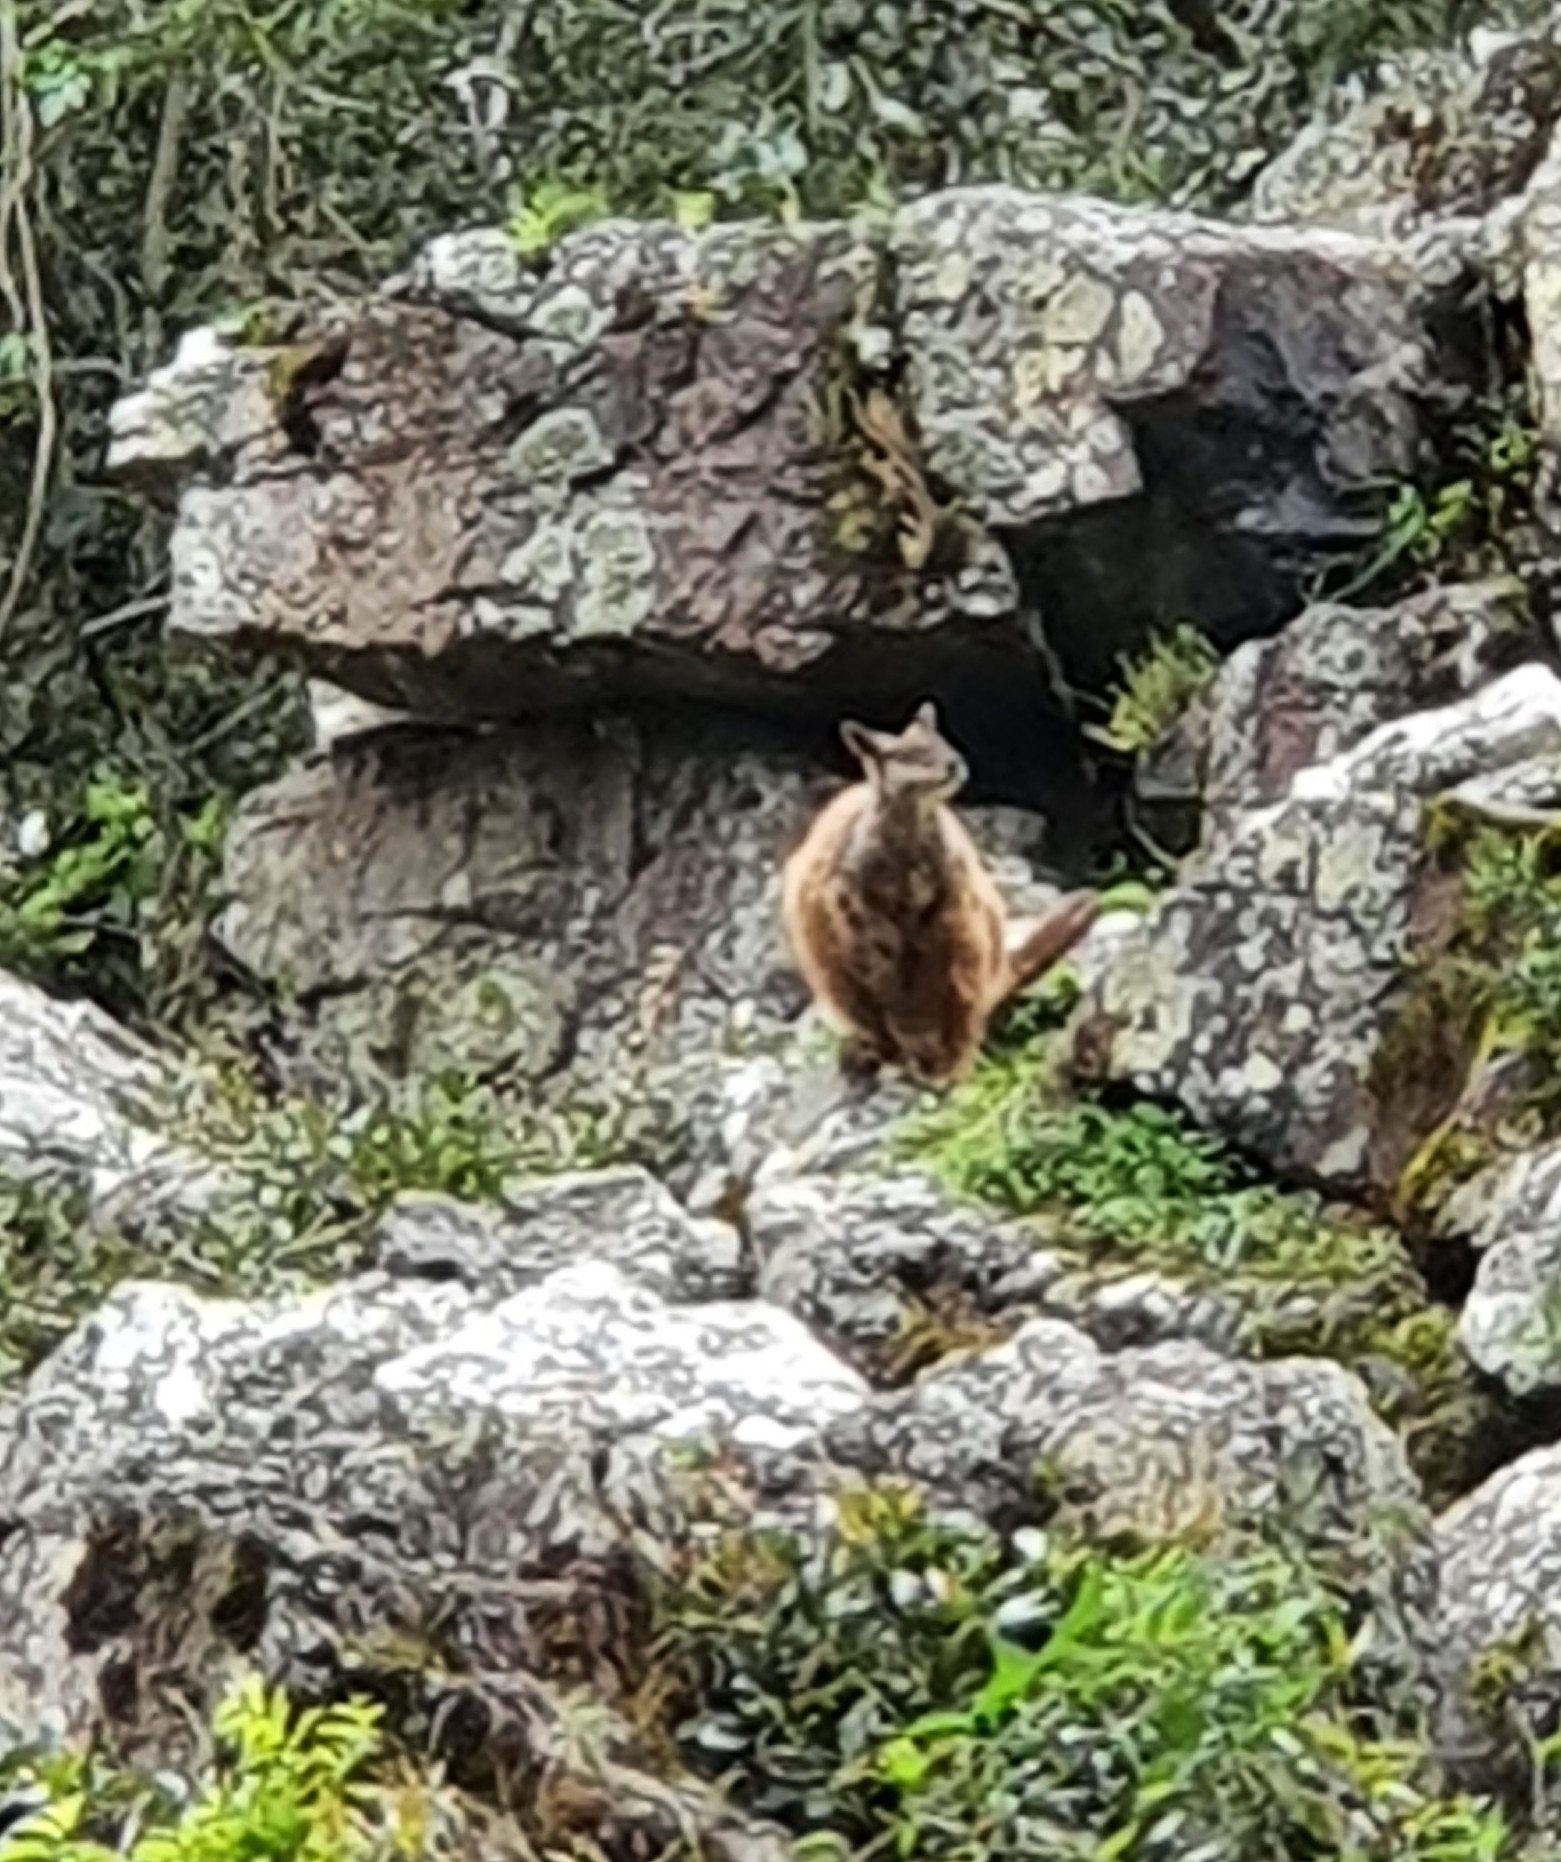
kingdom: Animalia
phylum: Chordata
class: Mammalia
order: Diprotodontia
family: Macropodidae
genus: Petrogale
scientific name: Petrogale penicillata
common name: Brush-tailed rock-wallaby
